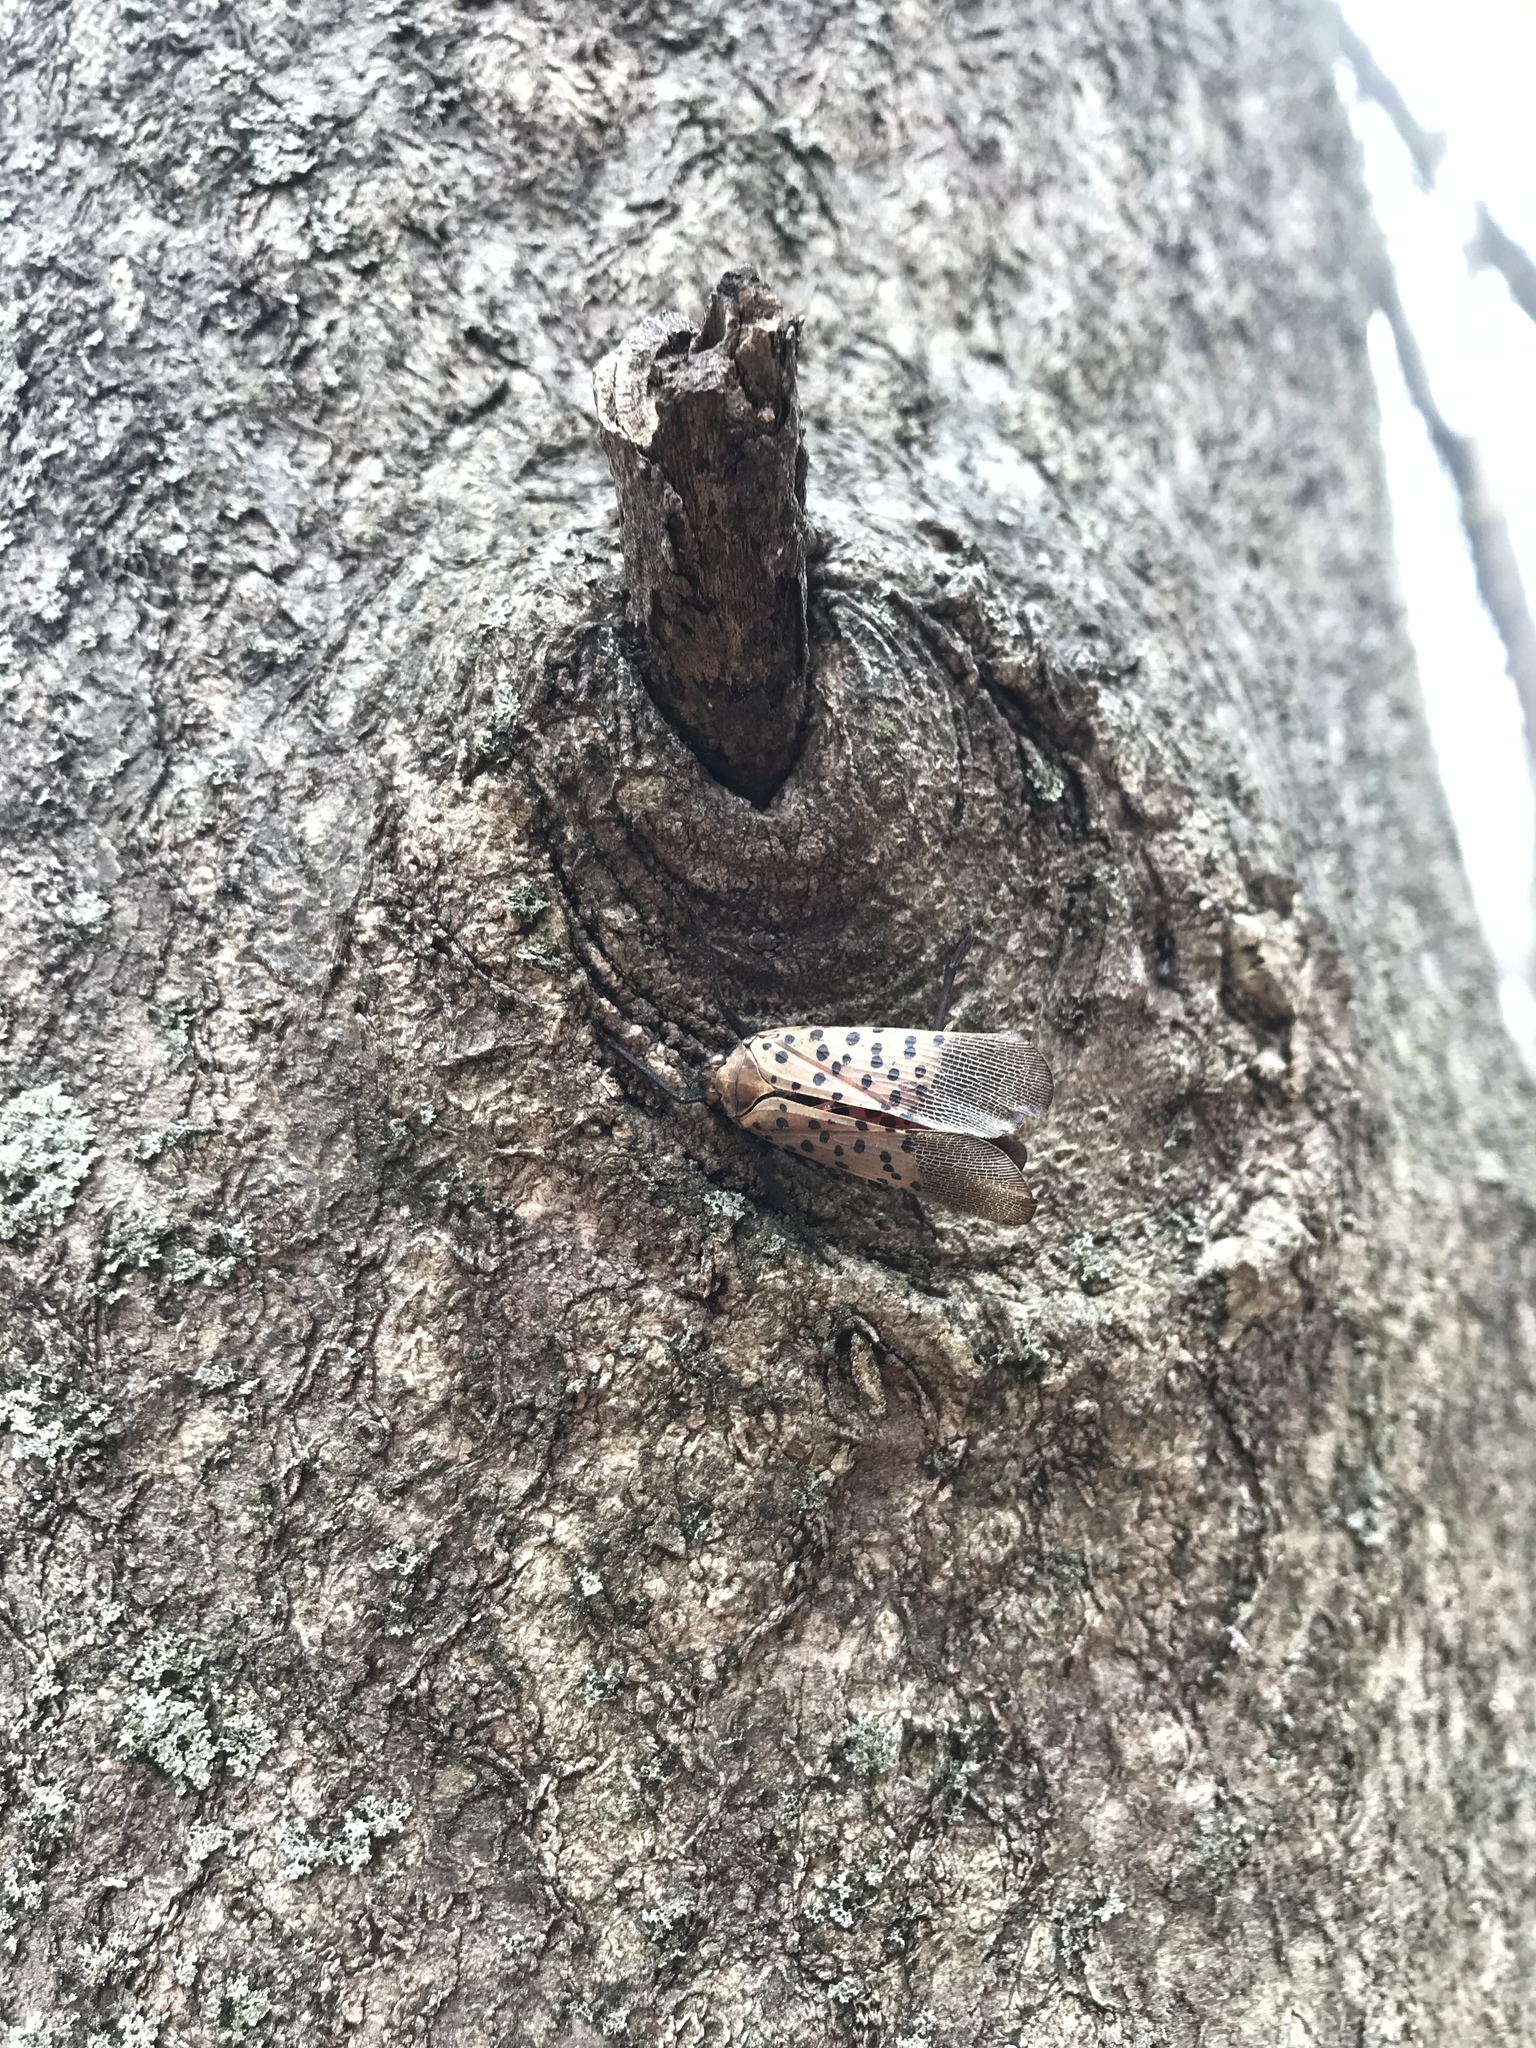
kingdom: Animalia
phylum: Arthropoda
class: Insecta
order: Hemiptera
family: Fulgoridae
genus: Lycorma
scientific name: Lycorma delicatula
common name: Spotted lanternfly
